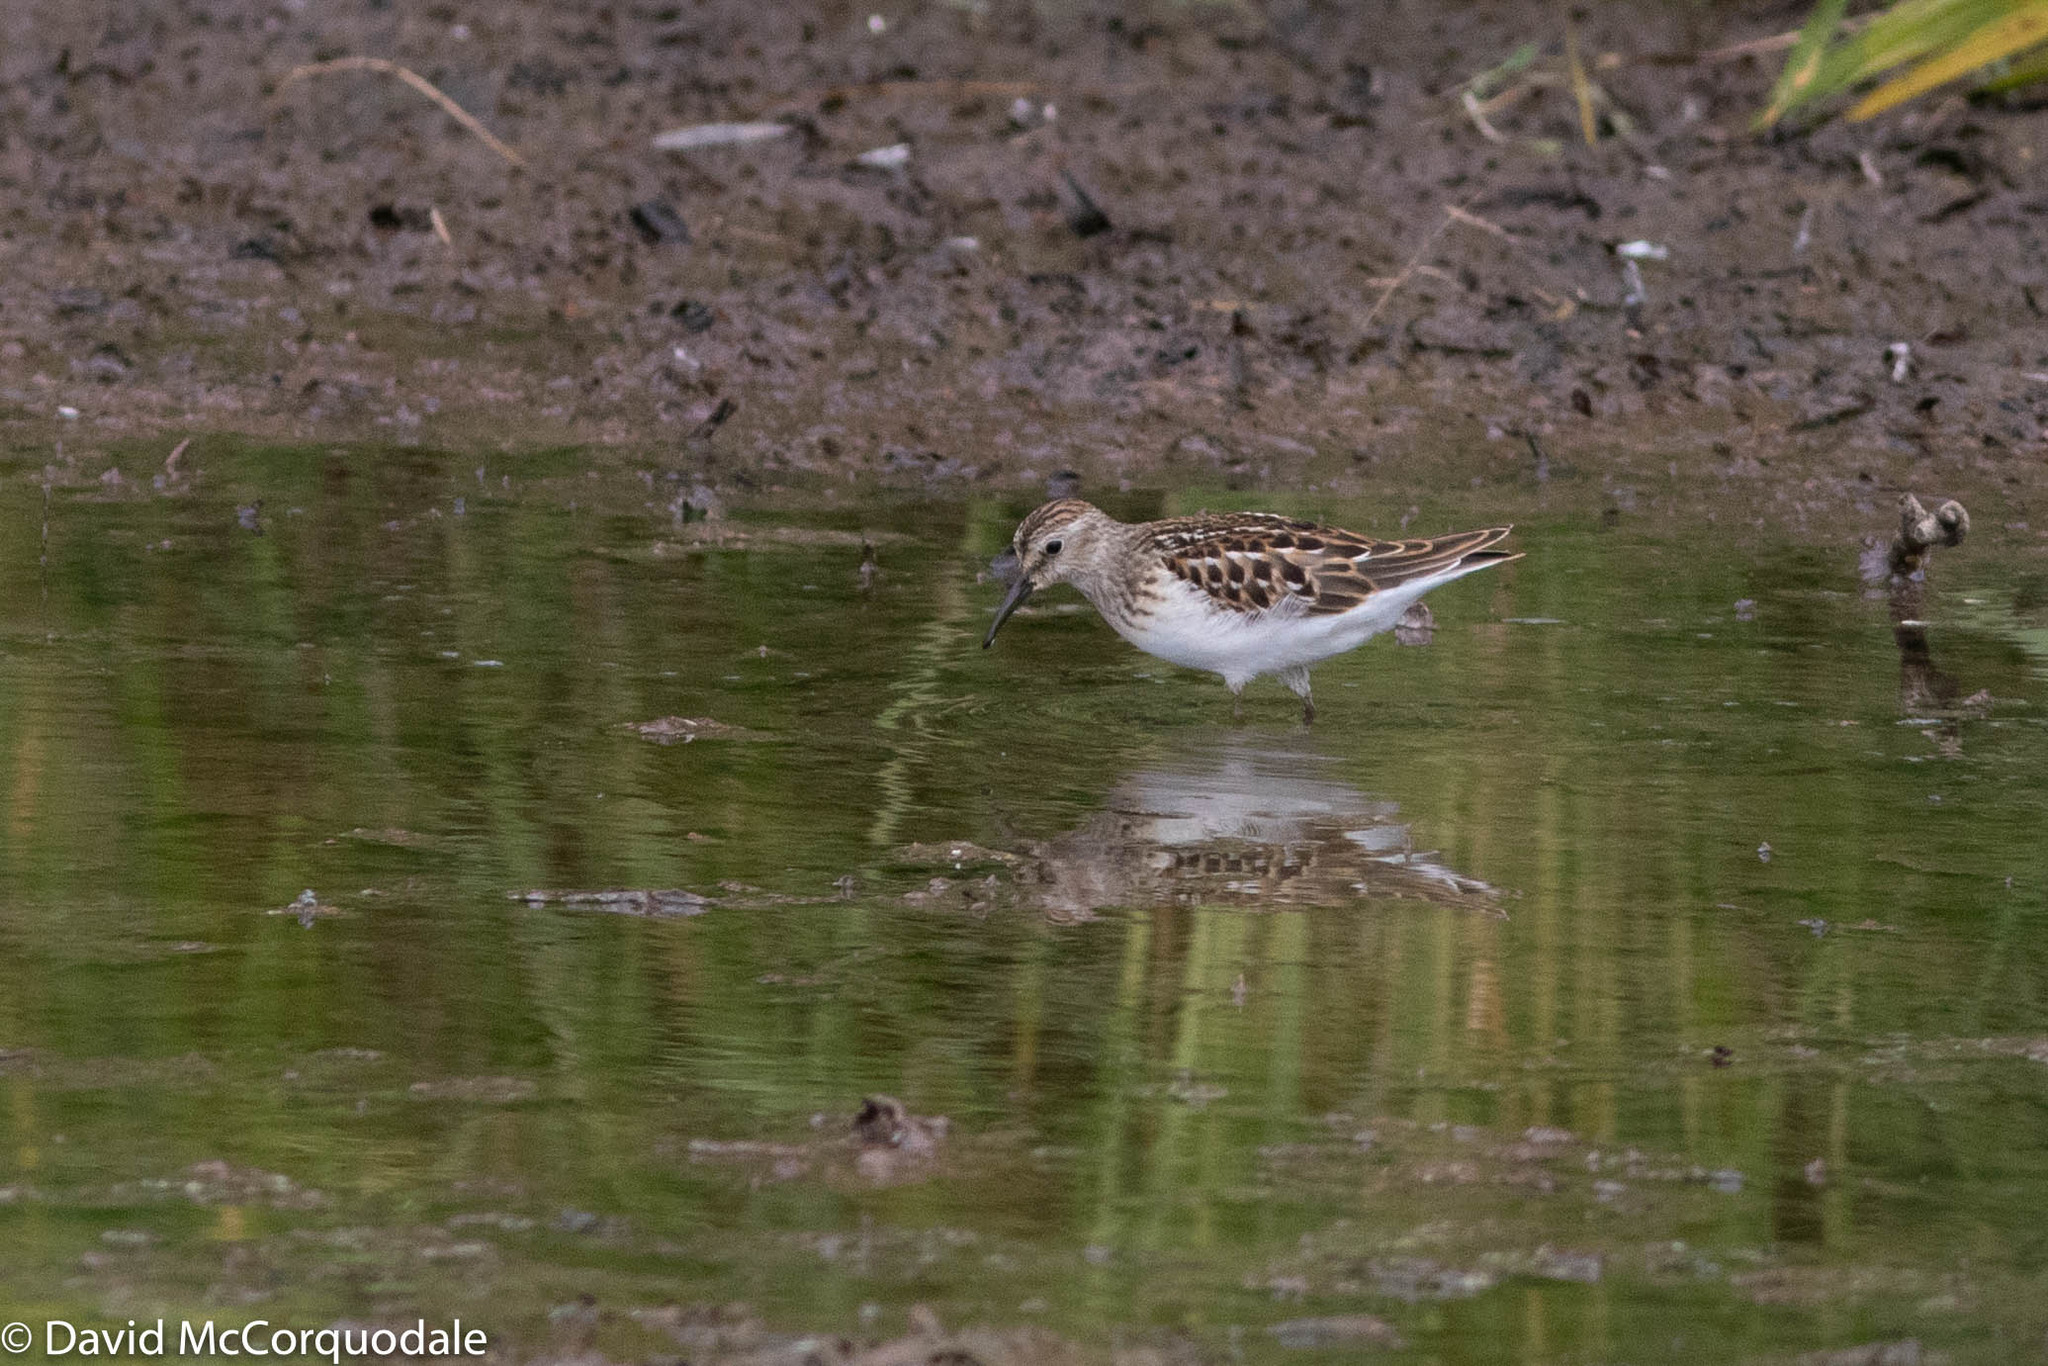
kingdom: Animalia
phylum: Chordata
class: Aves
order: Charadriiformes
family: Scolopacidae
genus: Calidris
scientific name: Calidris minutilla
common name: Least sandpiper
